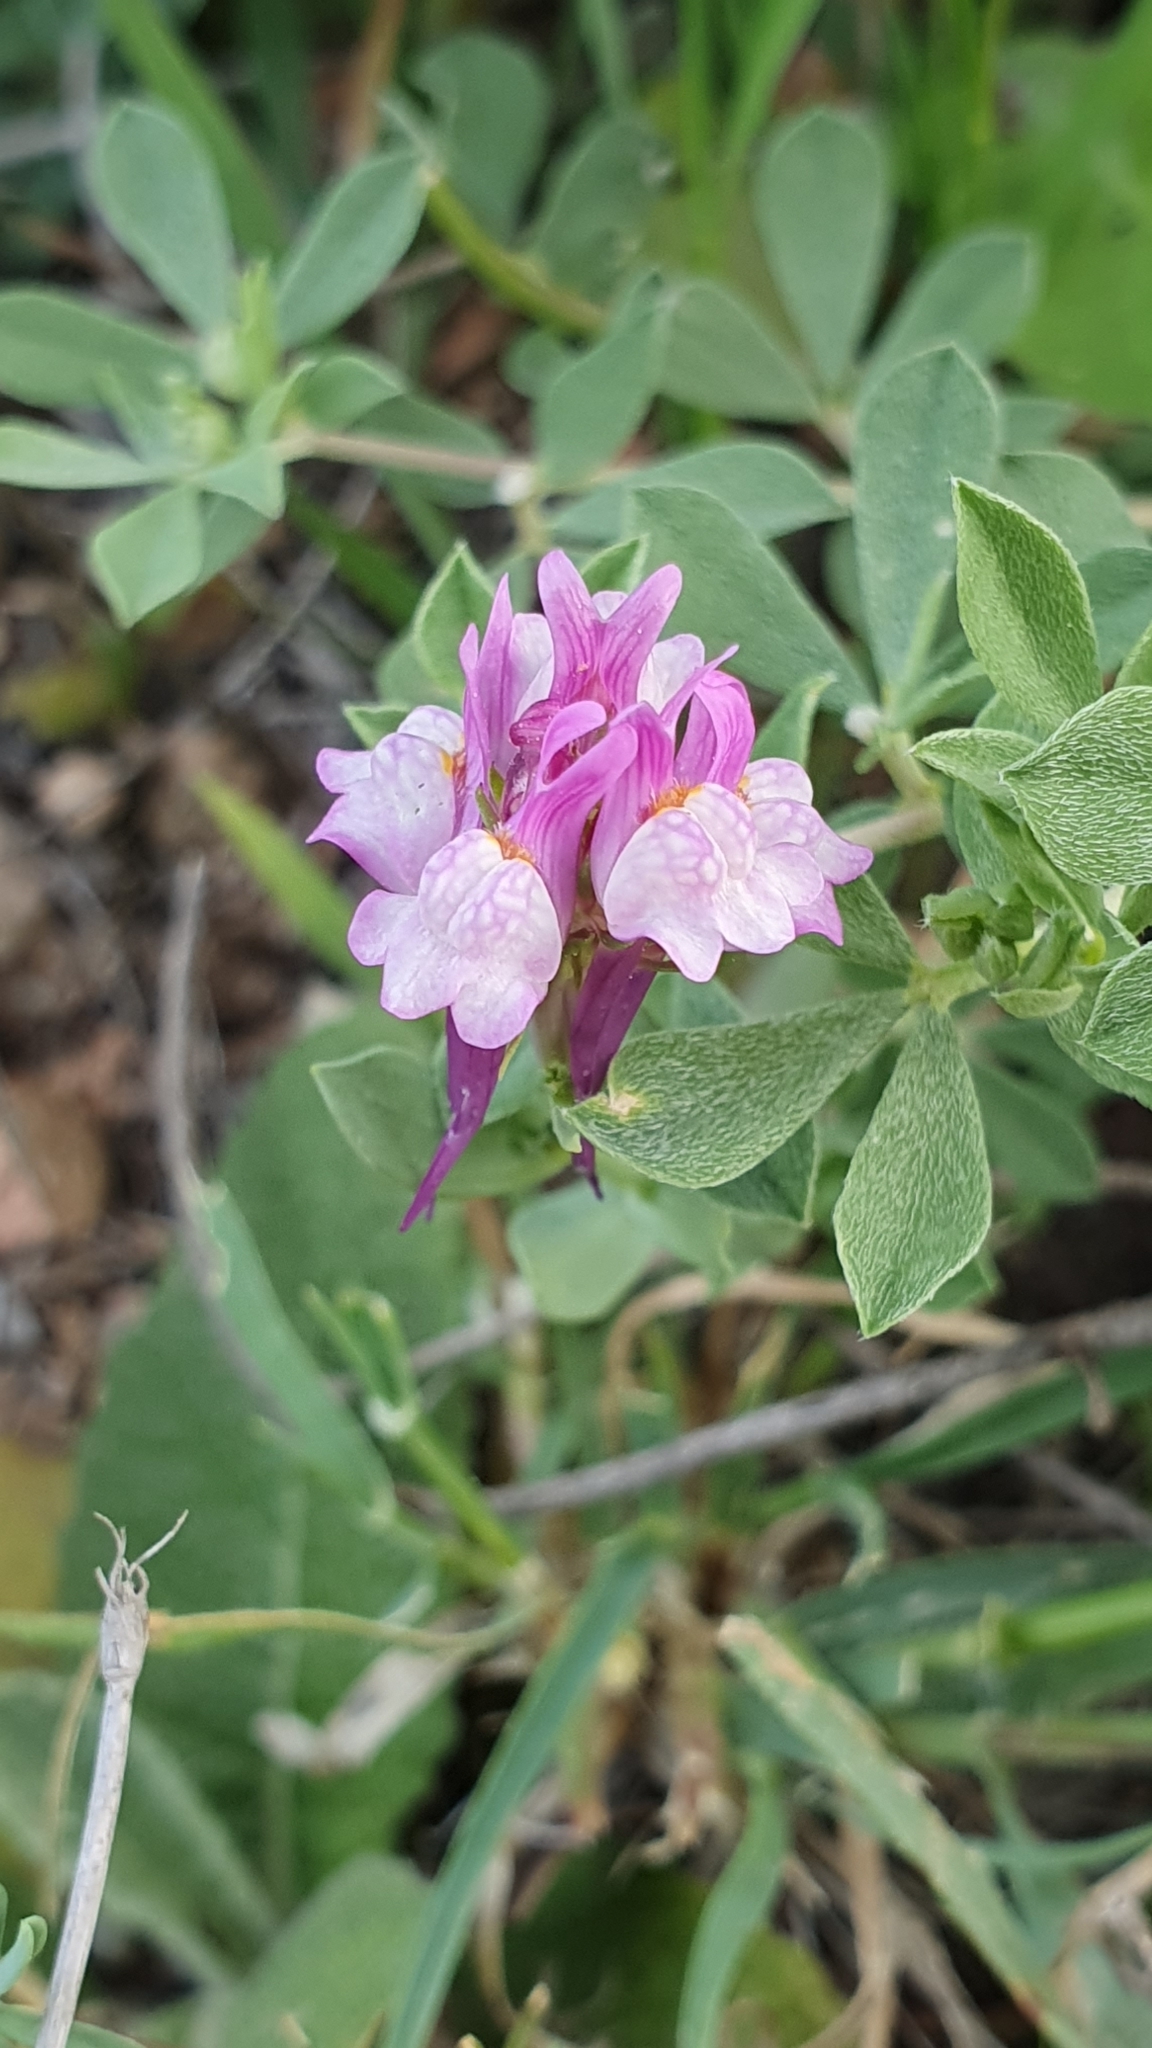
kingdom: Plantae
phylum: Tracheophyta
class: Magnoliopsida
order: Lamiales
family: Plantaginaceae
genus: Linaria
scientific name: Linaria virgata
